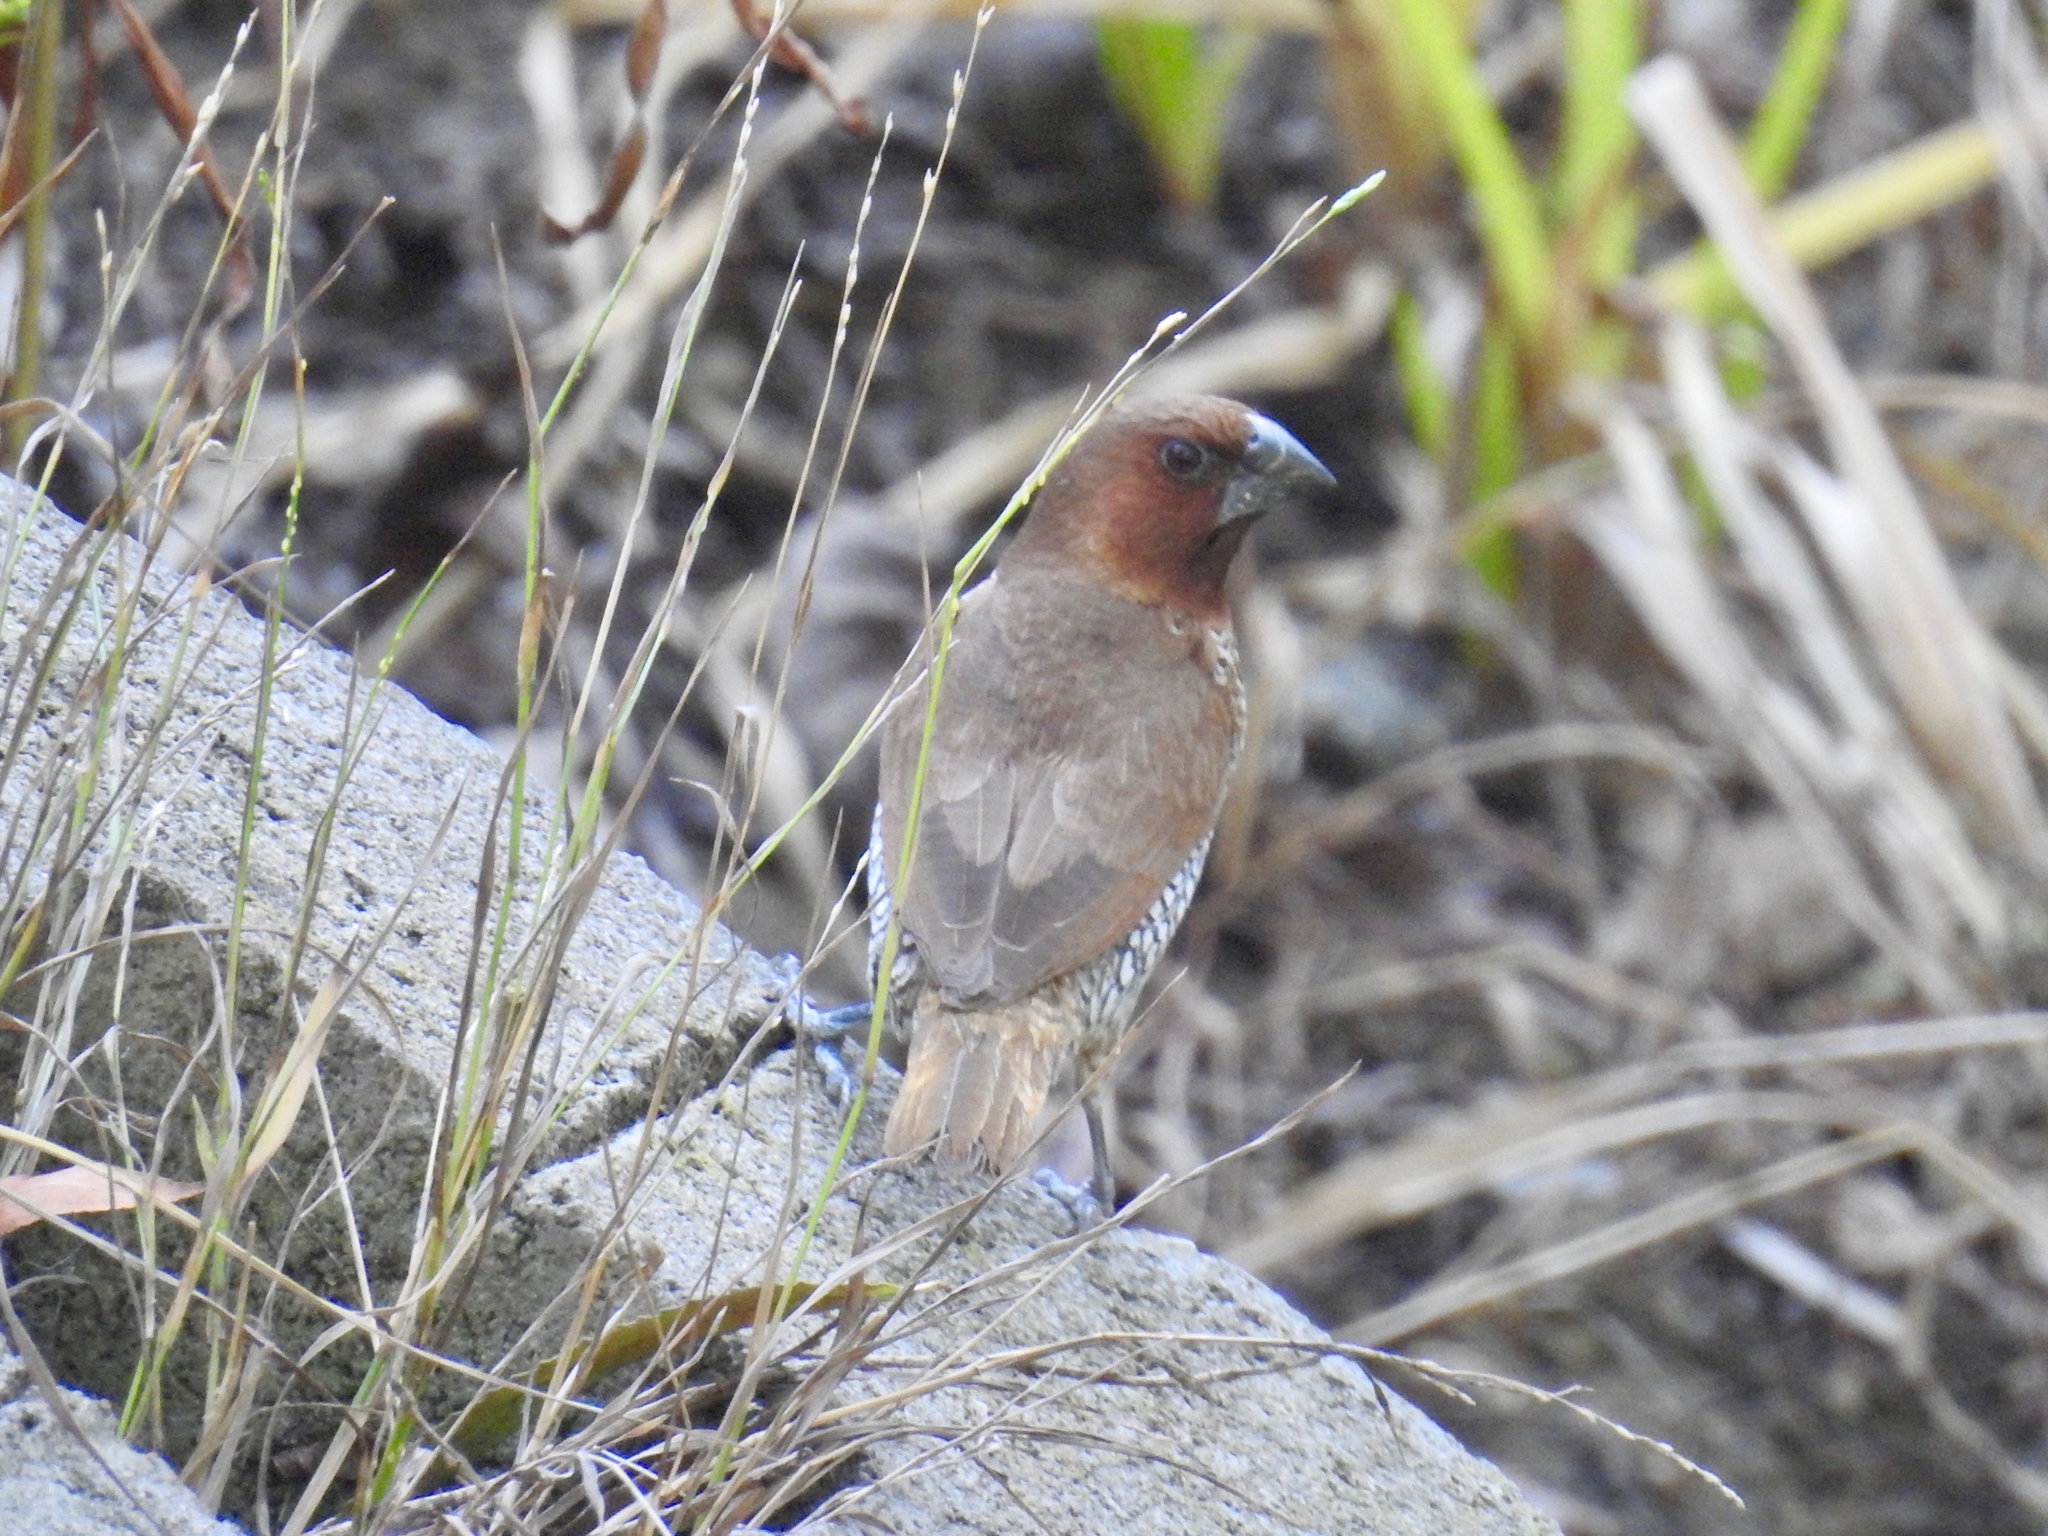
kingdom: Animalia
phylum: Chordata
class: Aves
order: Passeriformes
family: Estrildidae
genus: Lonchura
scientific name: Lonchura punctulata
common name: Scaly-breasted munia
